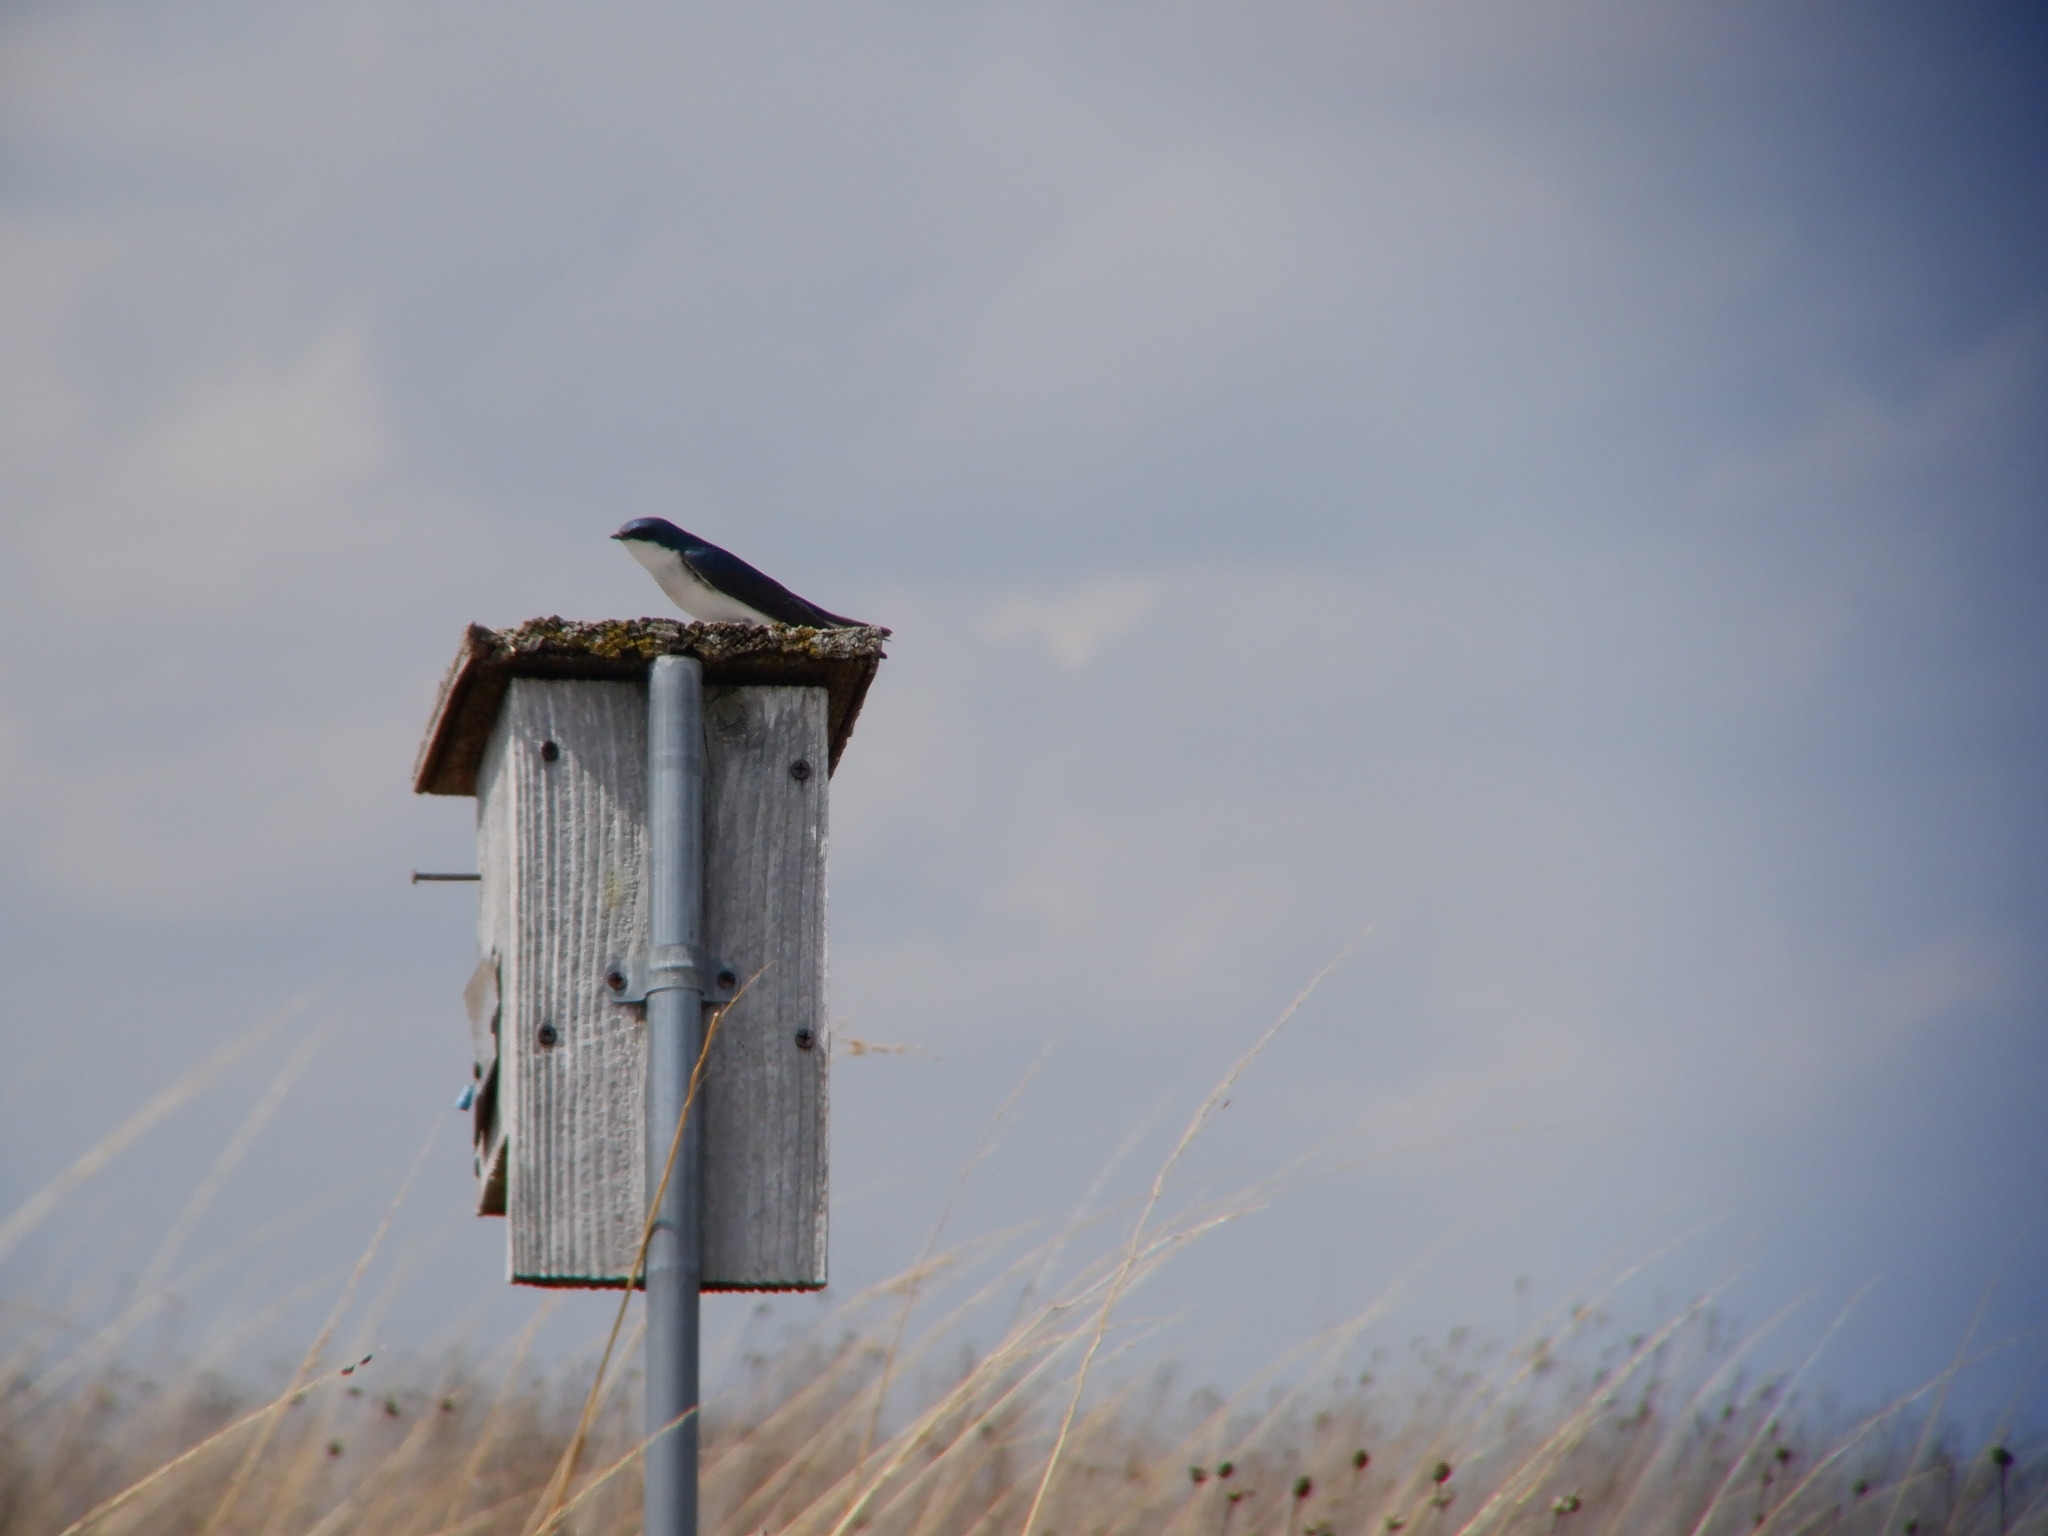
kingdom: Animalia
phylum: Chordata
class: Aves
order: Passeriformes
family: Hirundinidae
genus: Tachycineta
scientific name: Tachycineta bicolor
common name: Tree swallow
